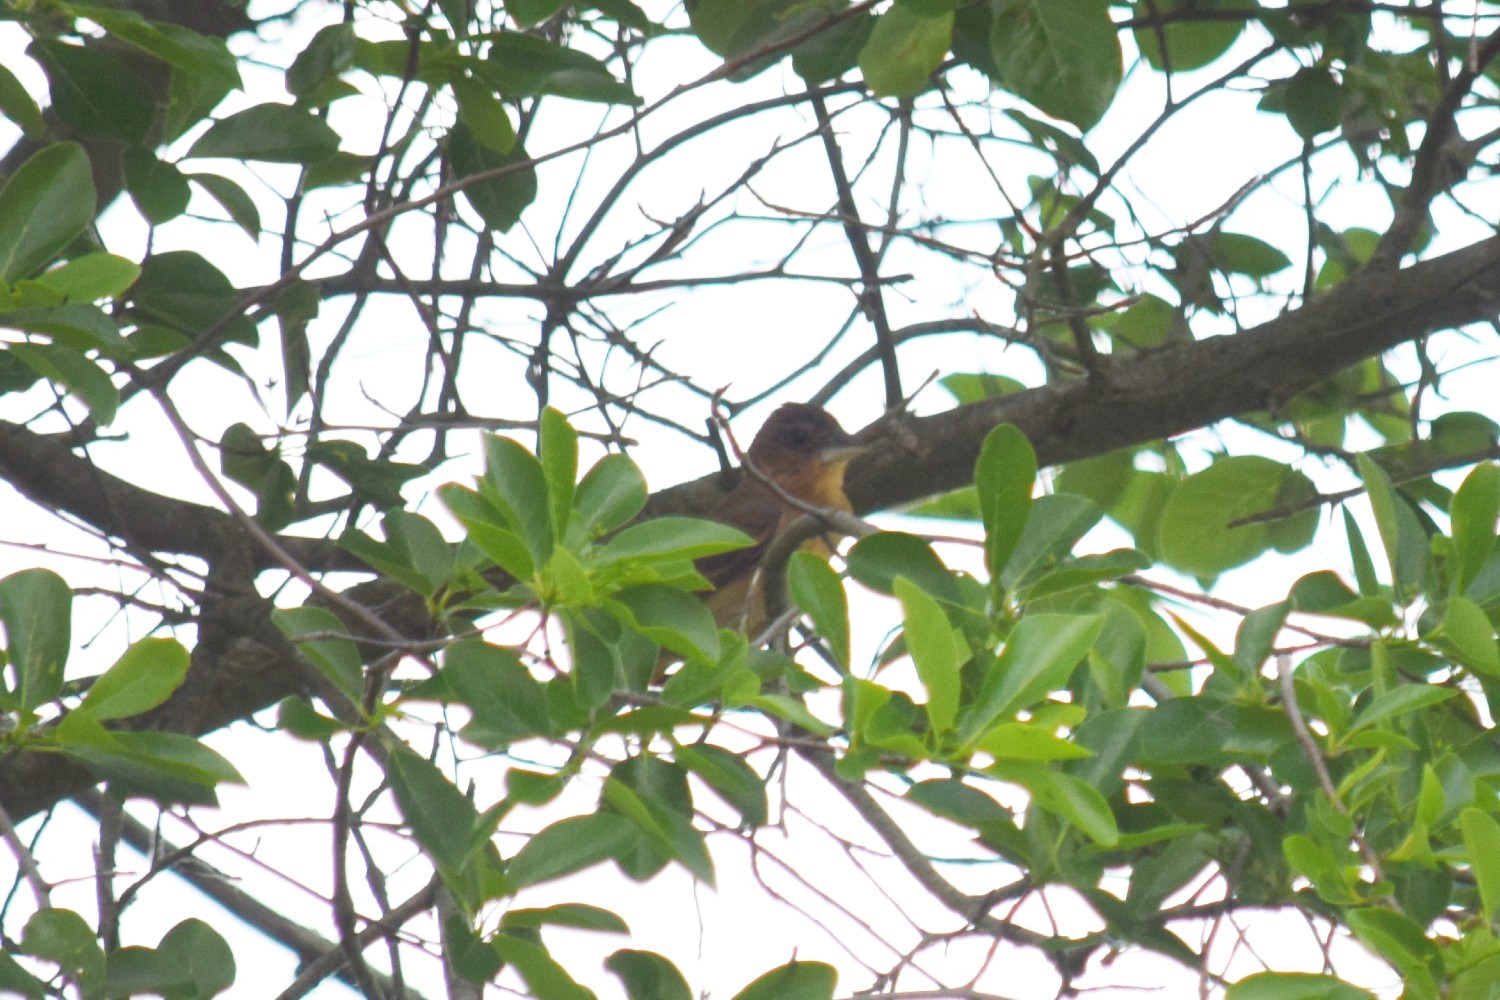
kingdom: Animalia
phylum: Chordata
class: Aves
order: Passeriformes
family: Cardinalidae
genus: Passerina
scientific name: Passerina caerulea
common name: Blue grosbeak
